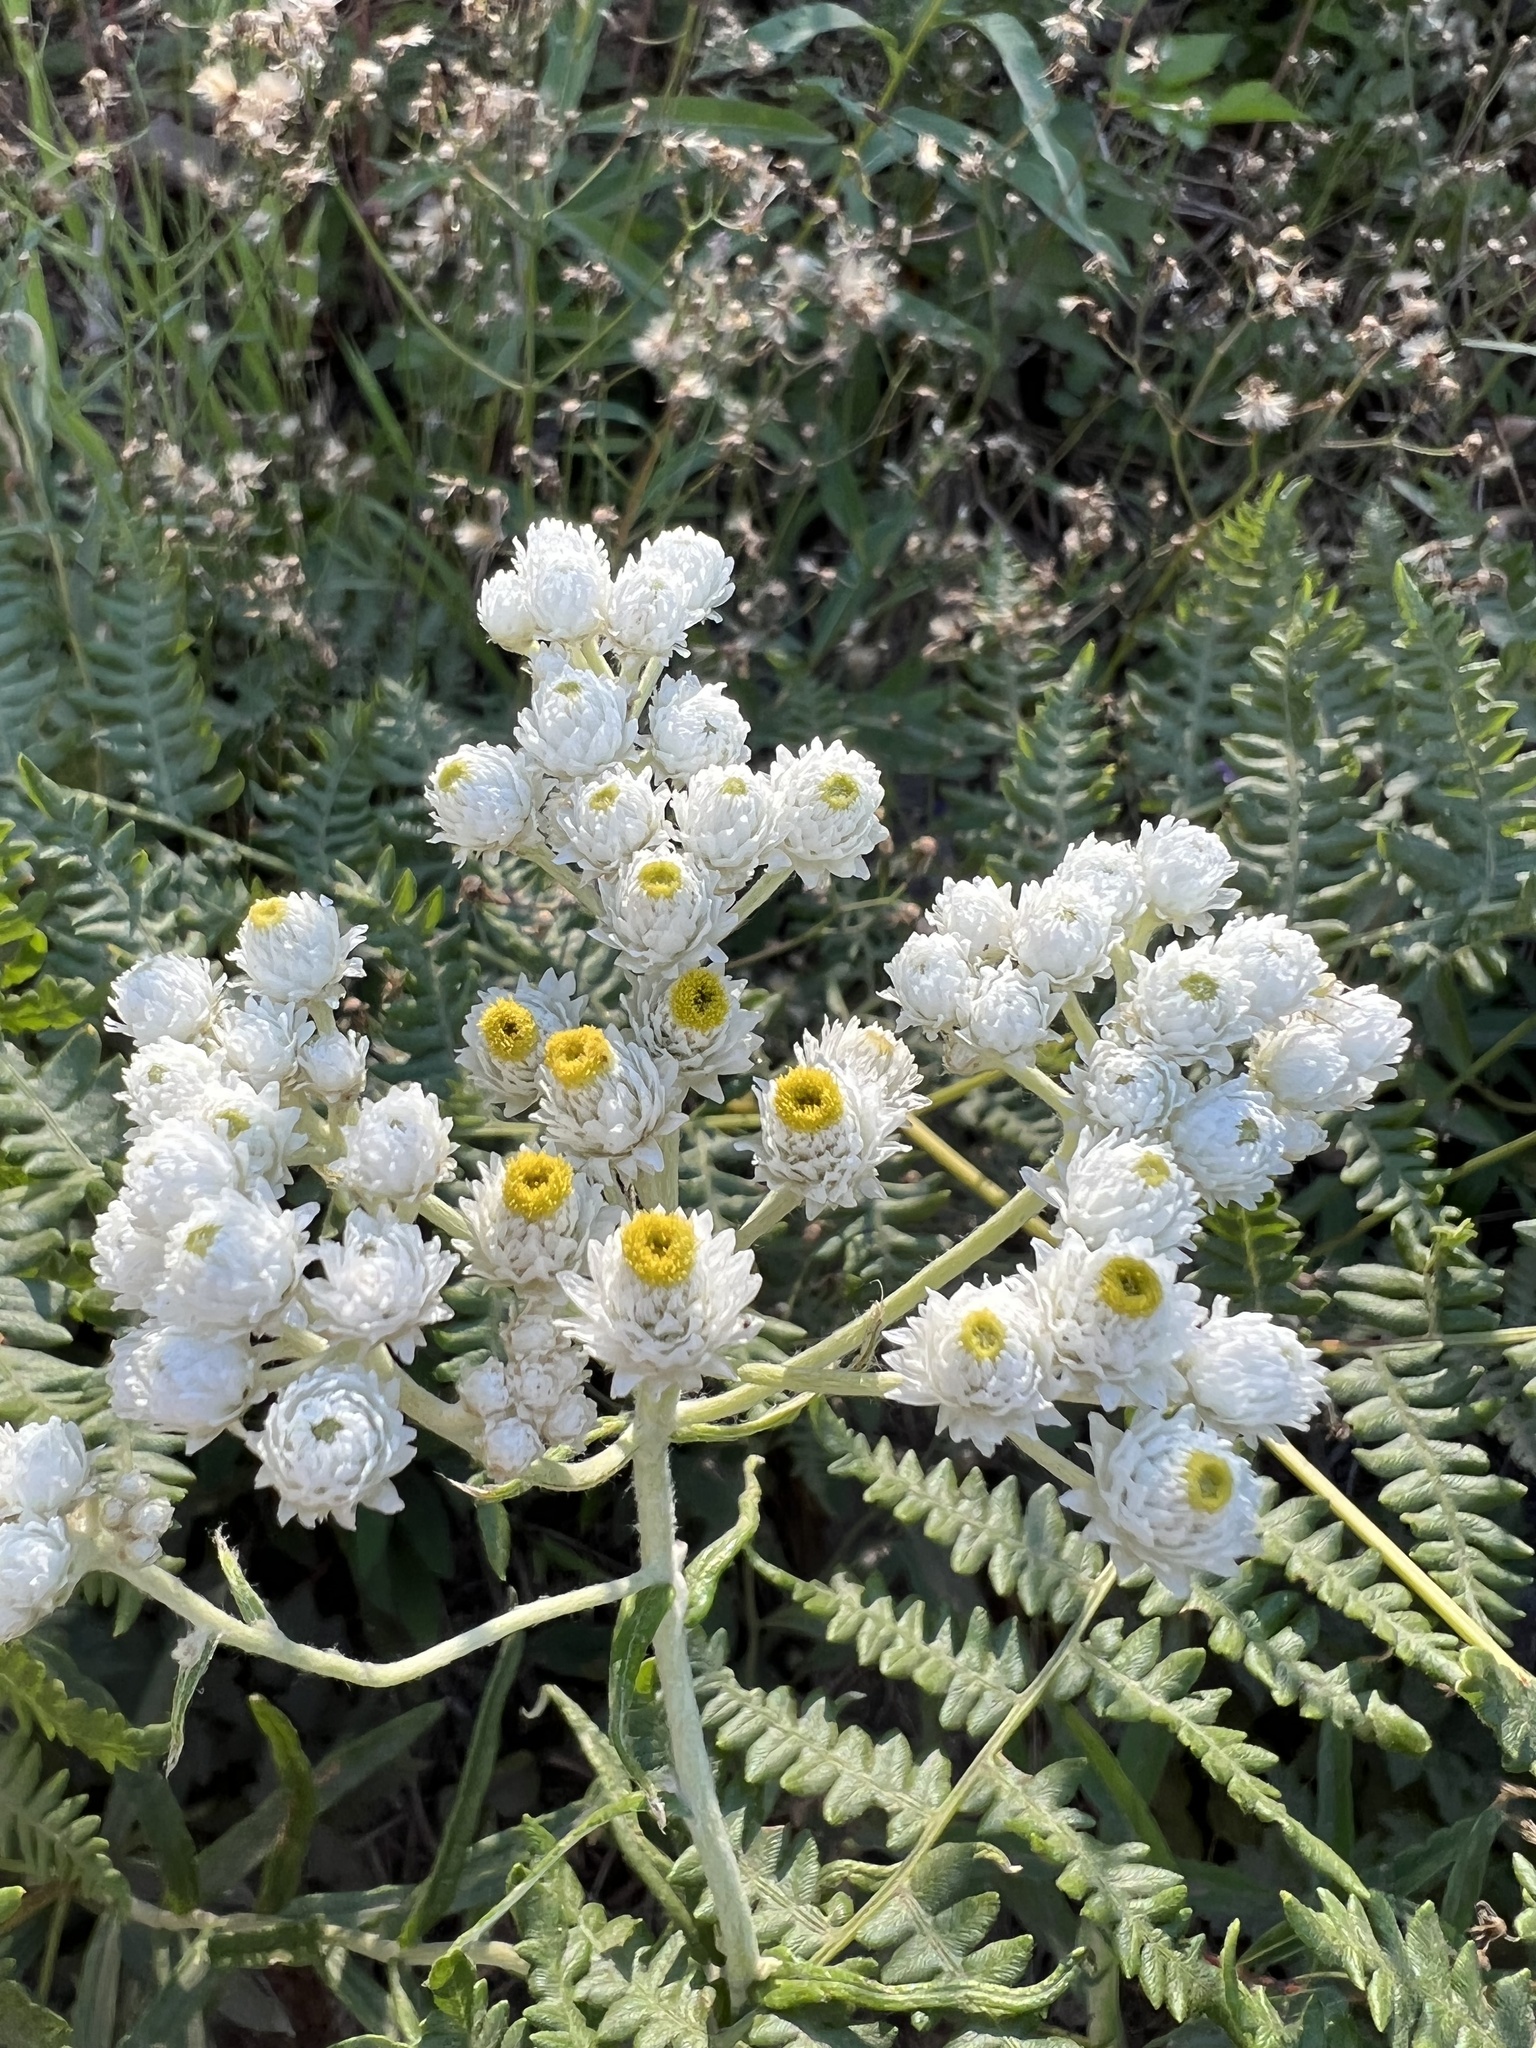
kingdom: Plantae
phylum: Tracheophyta
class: Magnoliopsida
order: Asterales
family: Asteraceae
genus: Anaphalis
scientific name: Anaphalis margaritacea
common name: Pearly everlasting
